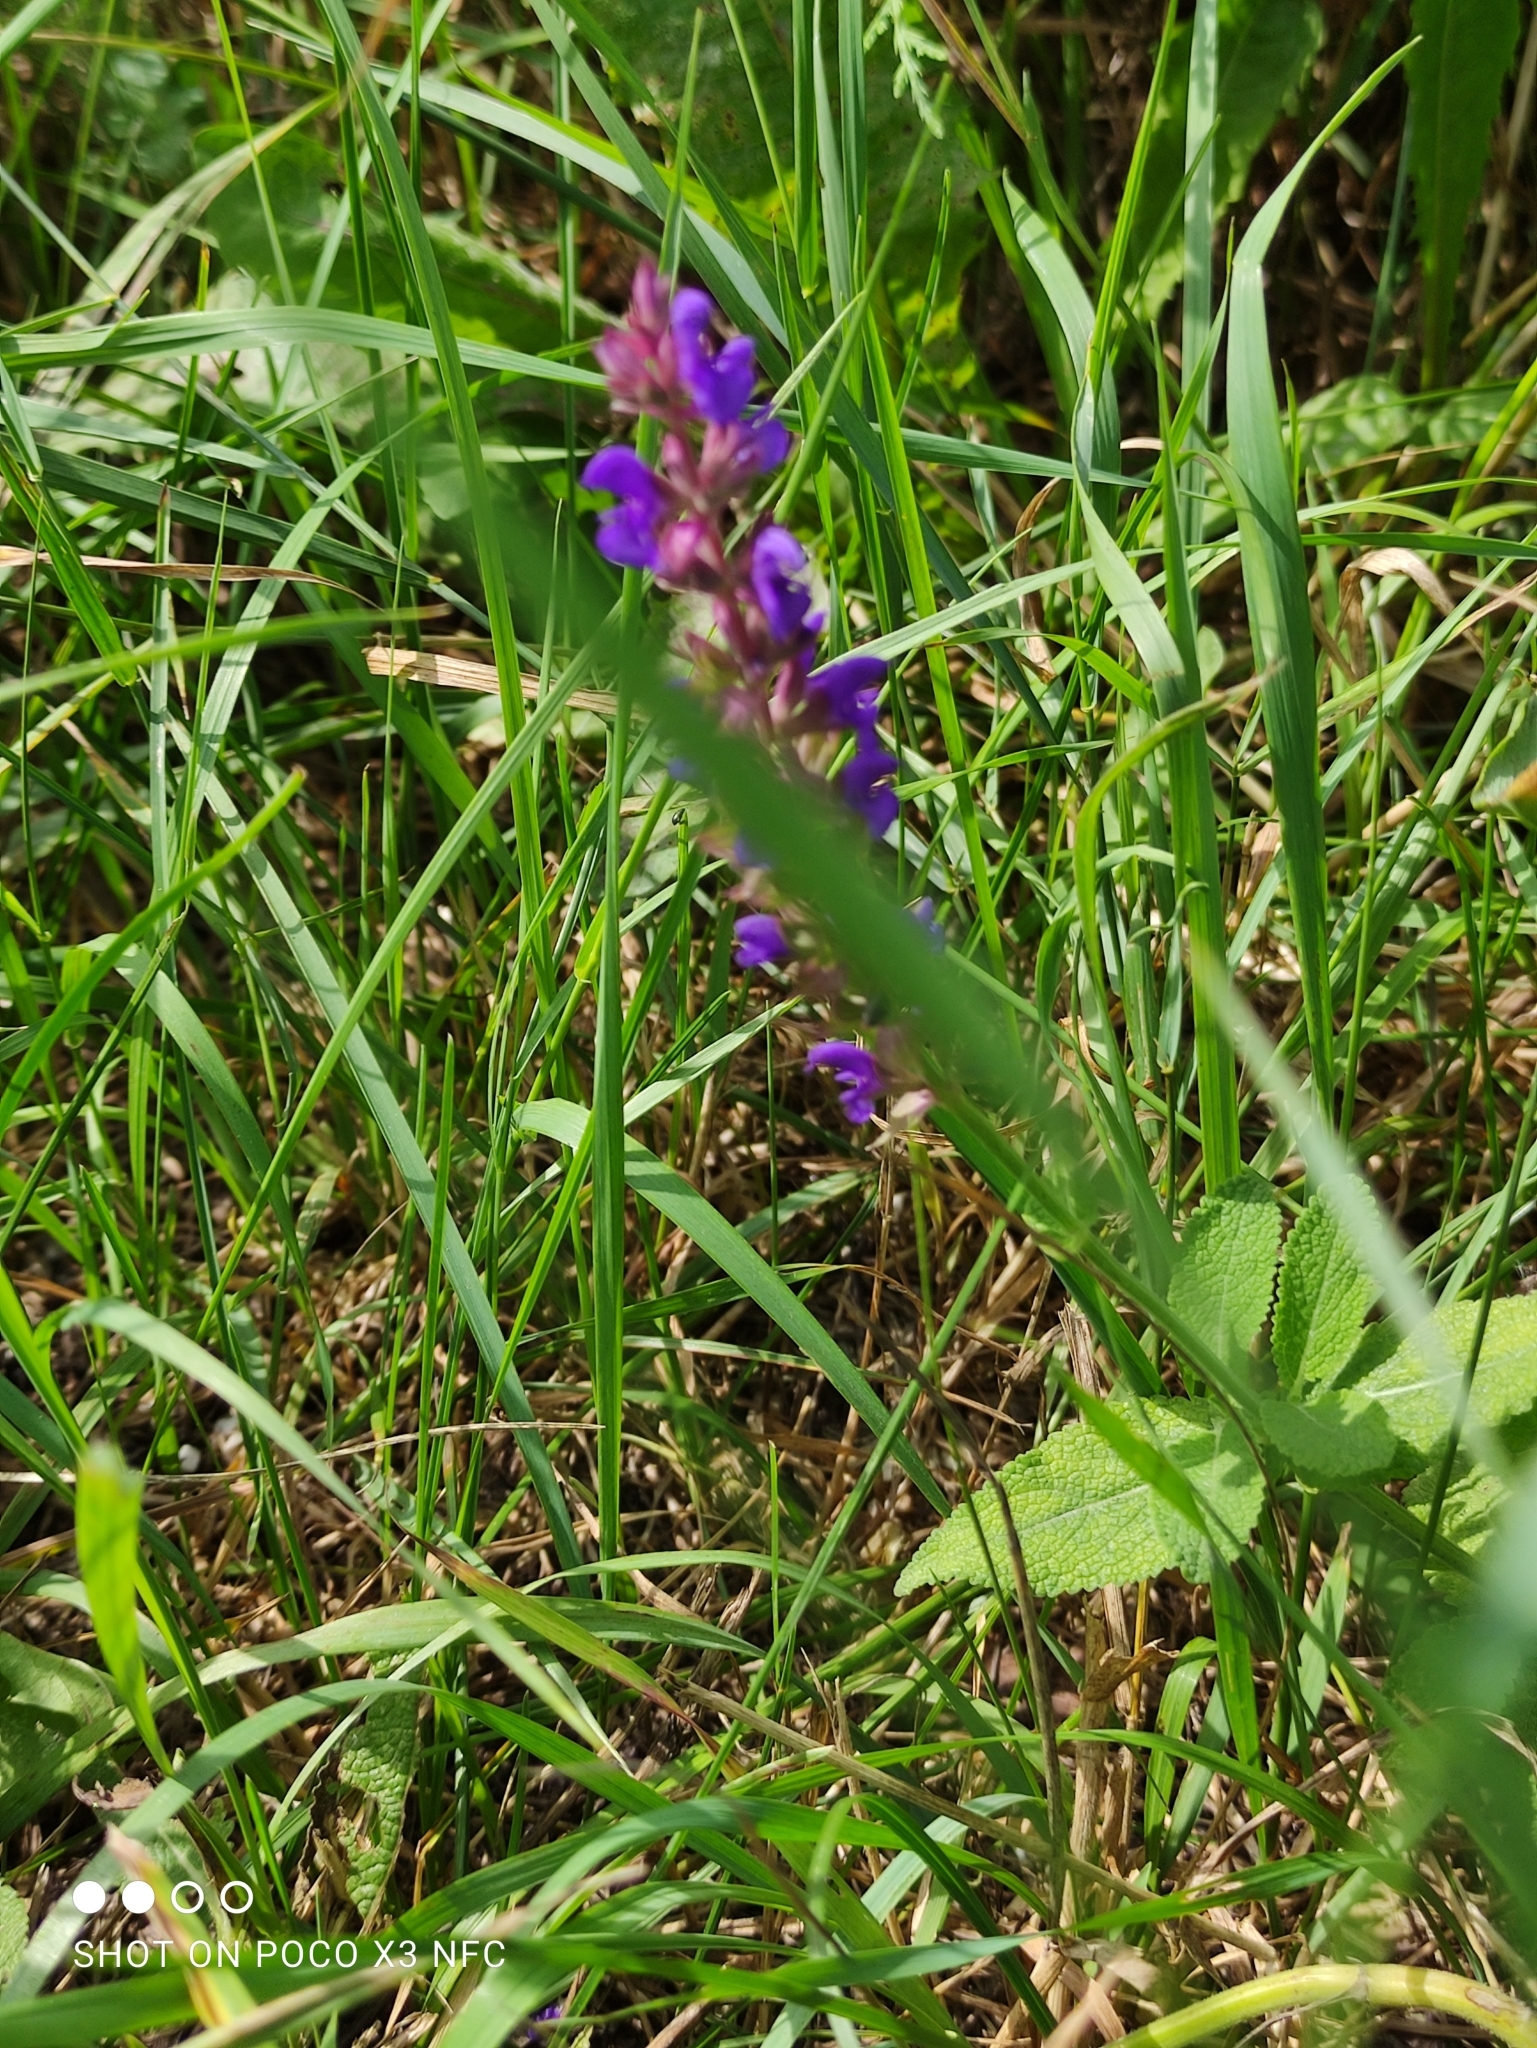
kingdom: Plantae
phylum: Tracheophyta
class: Magnoliopsida
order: Lamiales
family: Lamiaceae
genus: Salvia
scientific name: Salvia nemorosa
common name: Balkan clary
